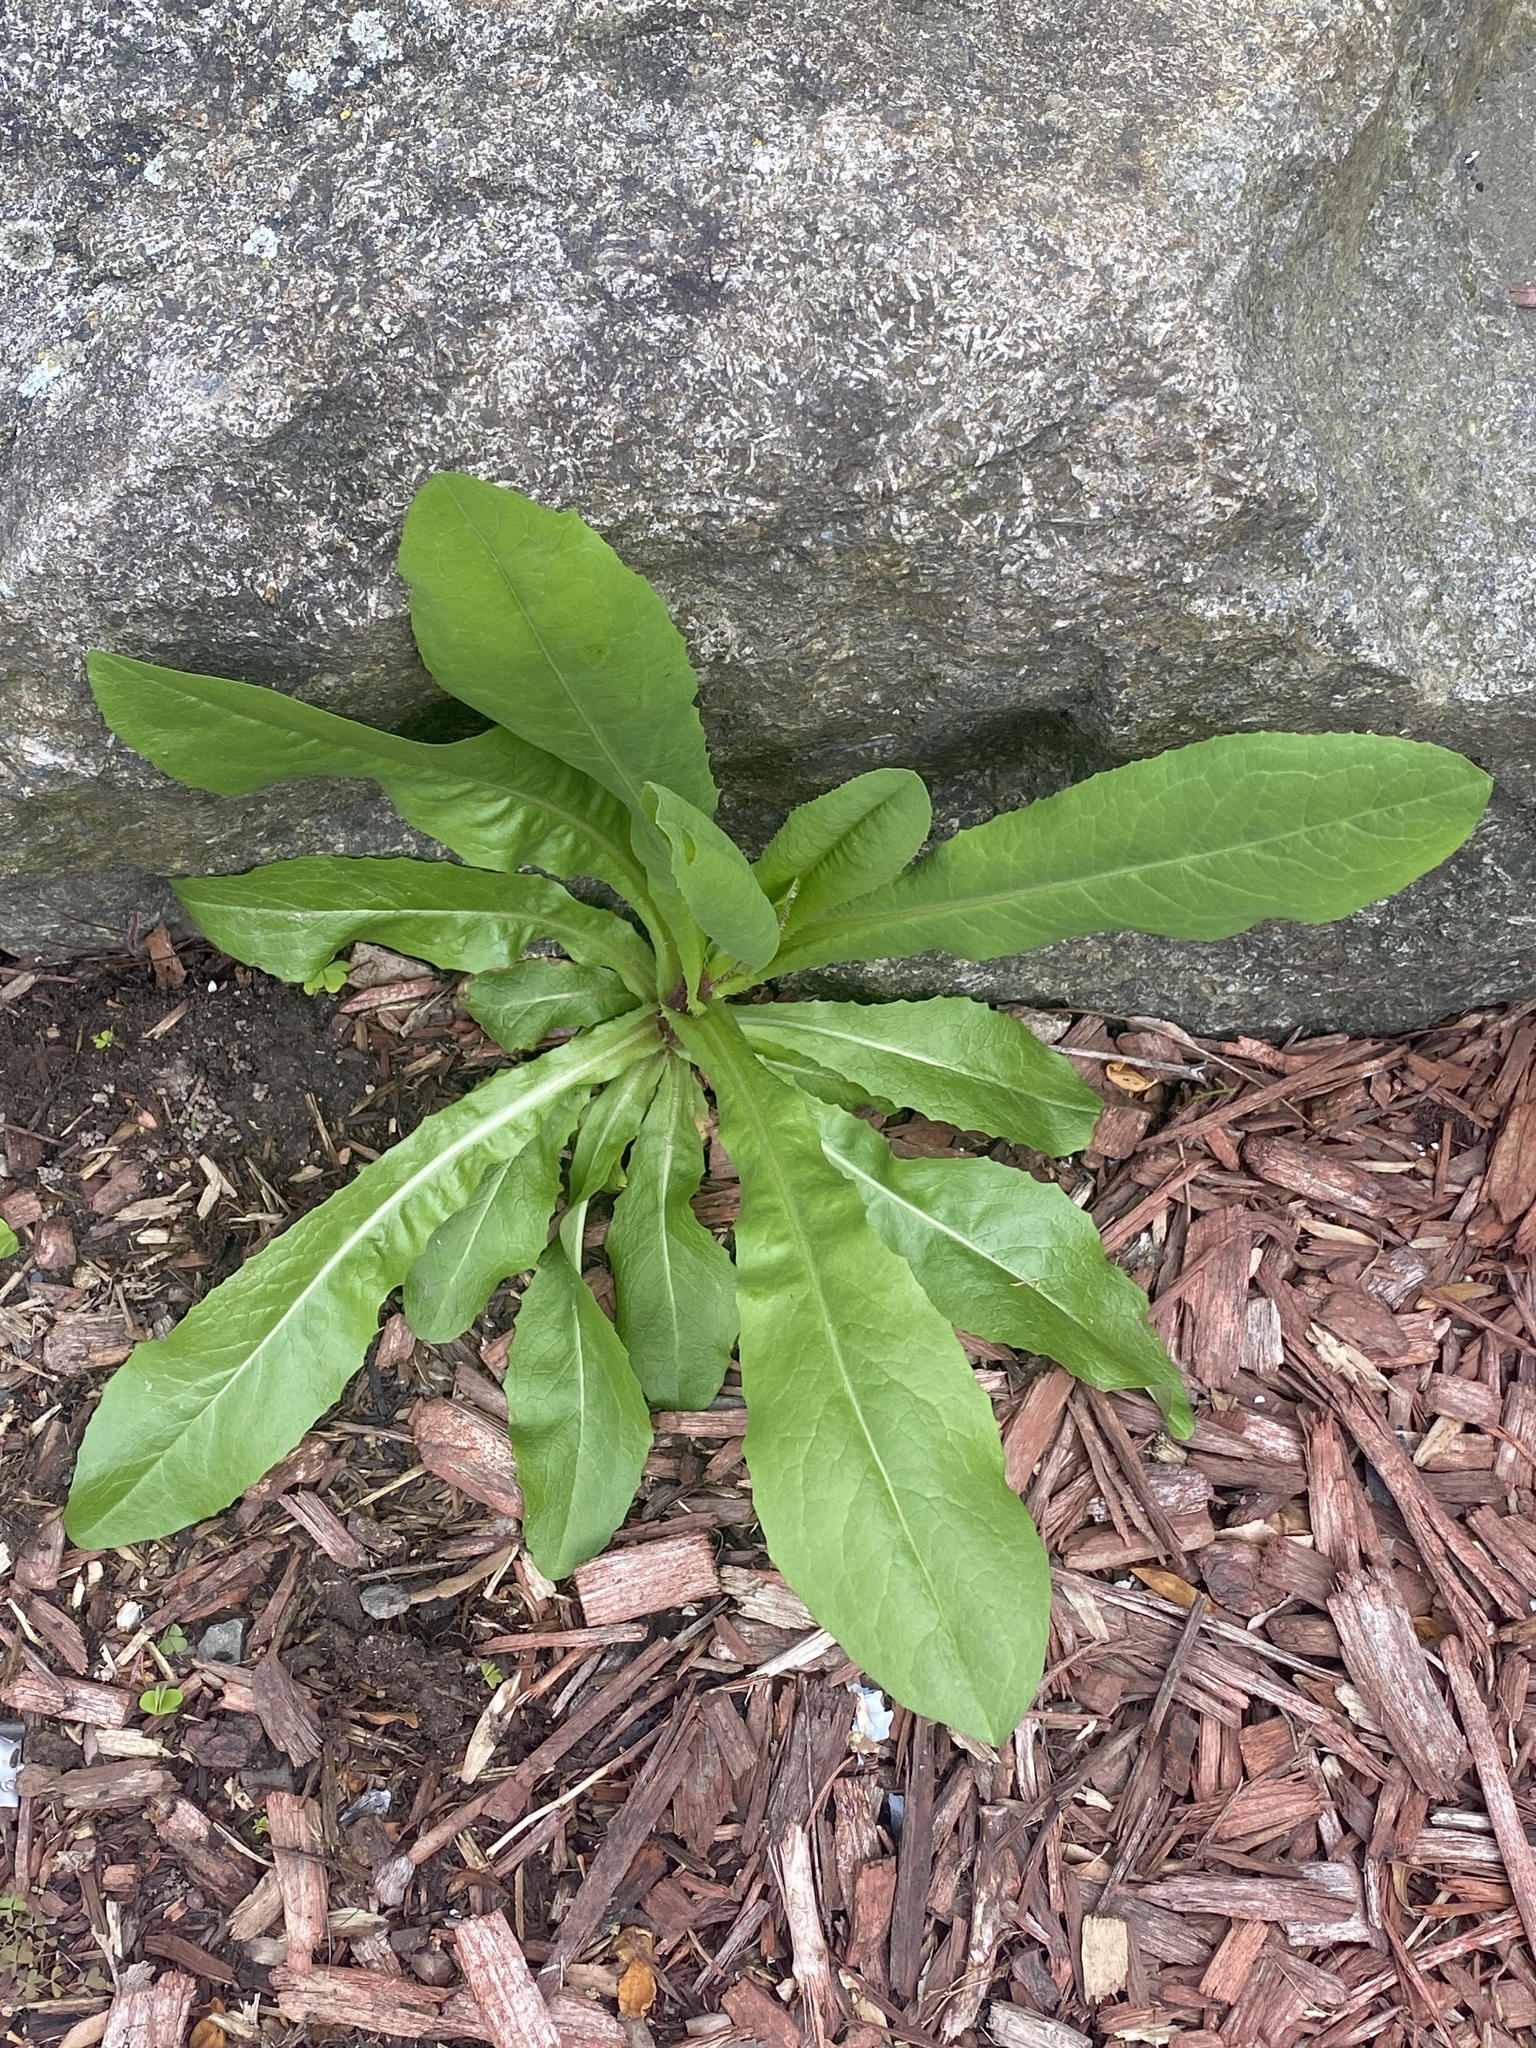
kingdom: Plantae
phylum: Tracheophyta
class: Magnoliopsida
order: Asterales
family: Asteraceae
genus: Lactuca
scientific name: Lactuca serriola
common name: Prickly lettuce
